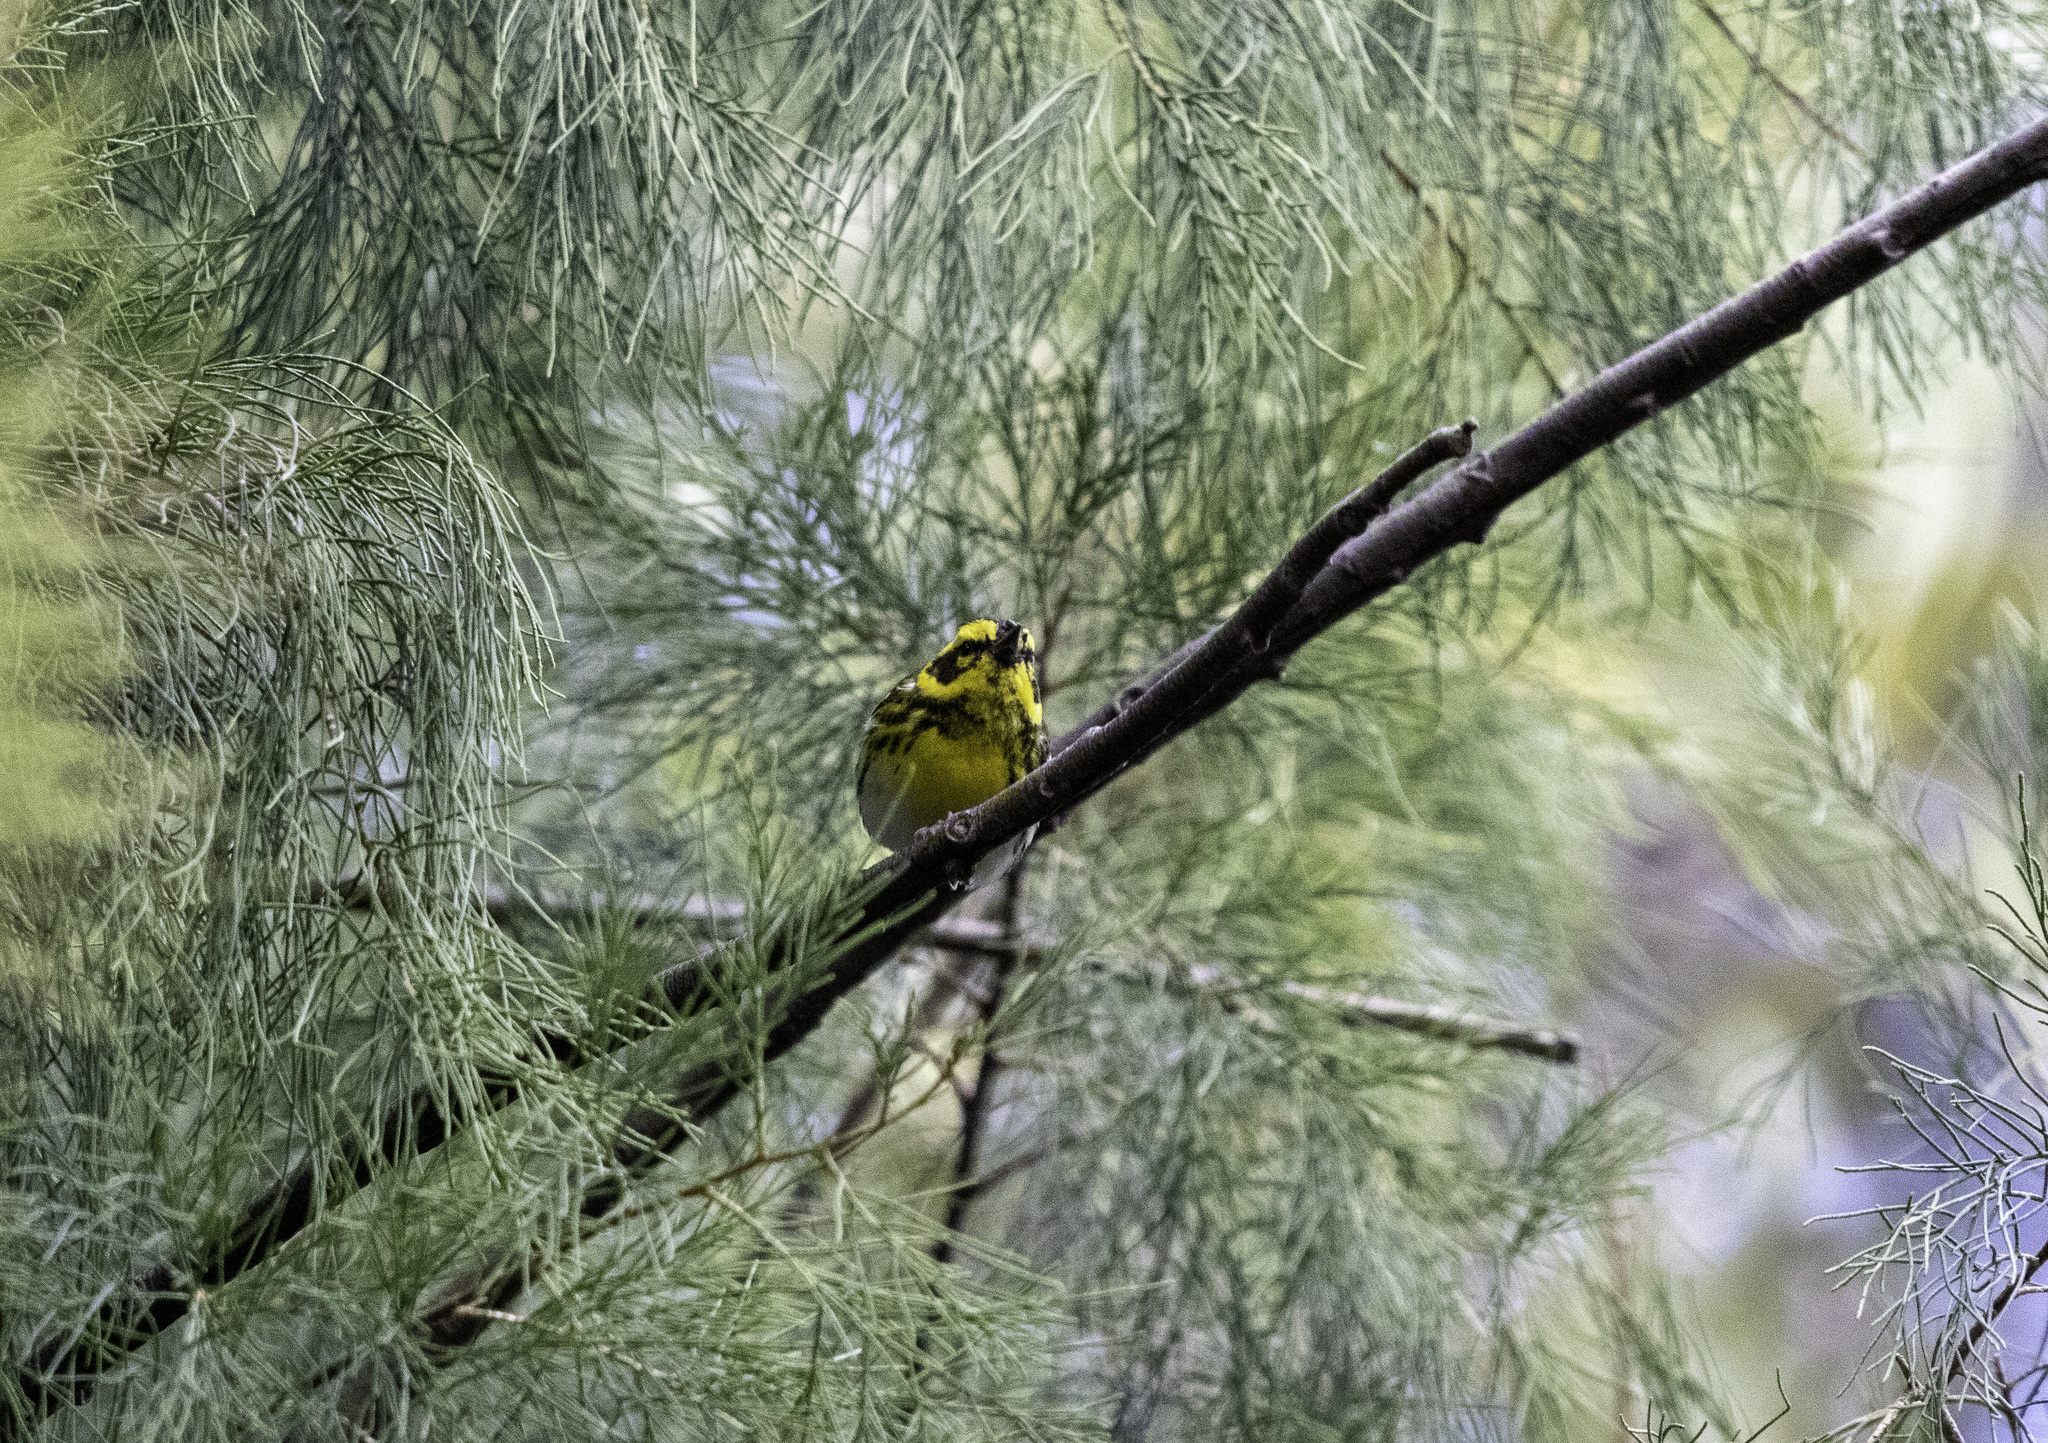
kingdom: Animalia
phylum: Chordata
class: Aves
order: Passeriformes
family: Parulidae
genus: Setophaga
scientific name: Setophaga townsendi
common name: Townsend's warbler
